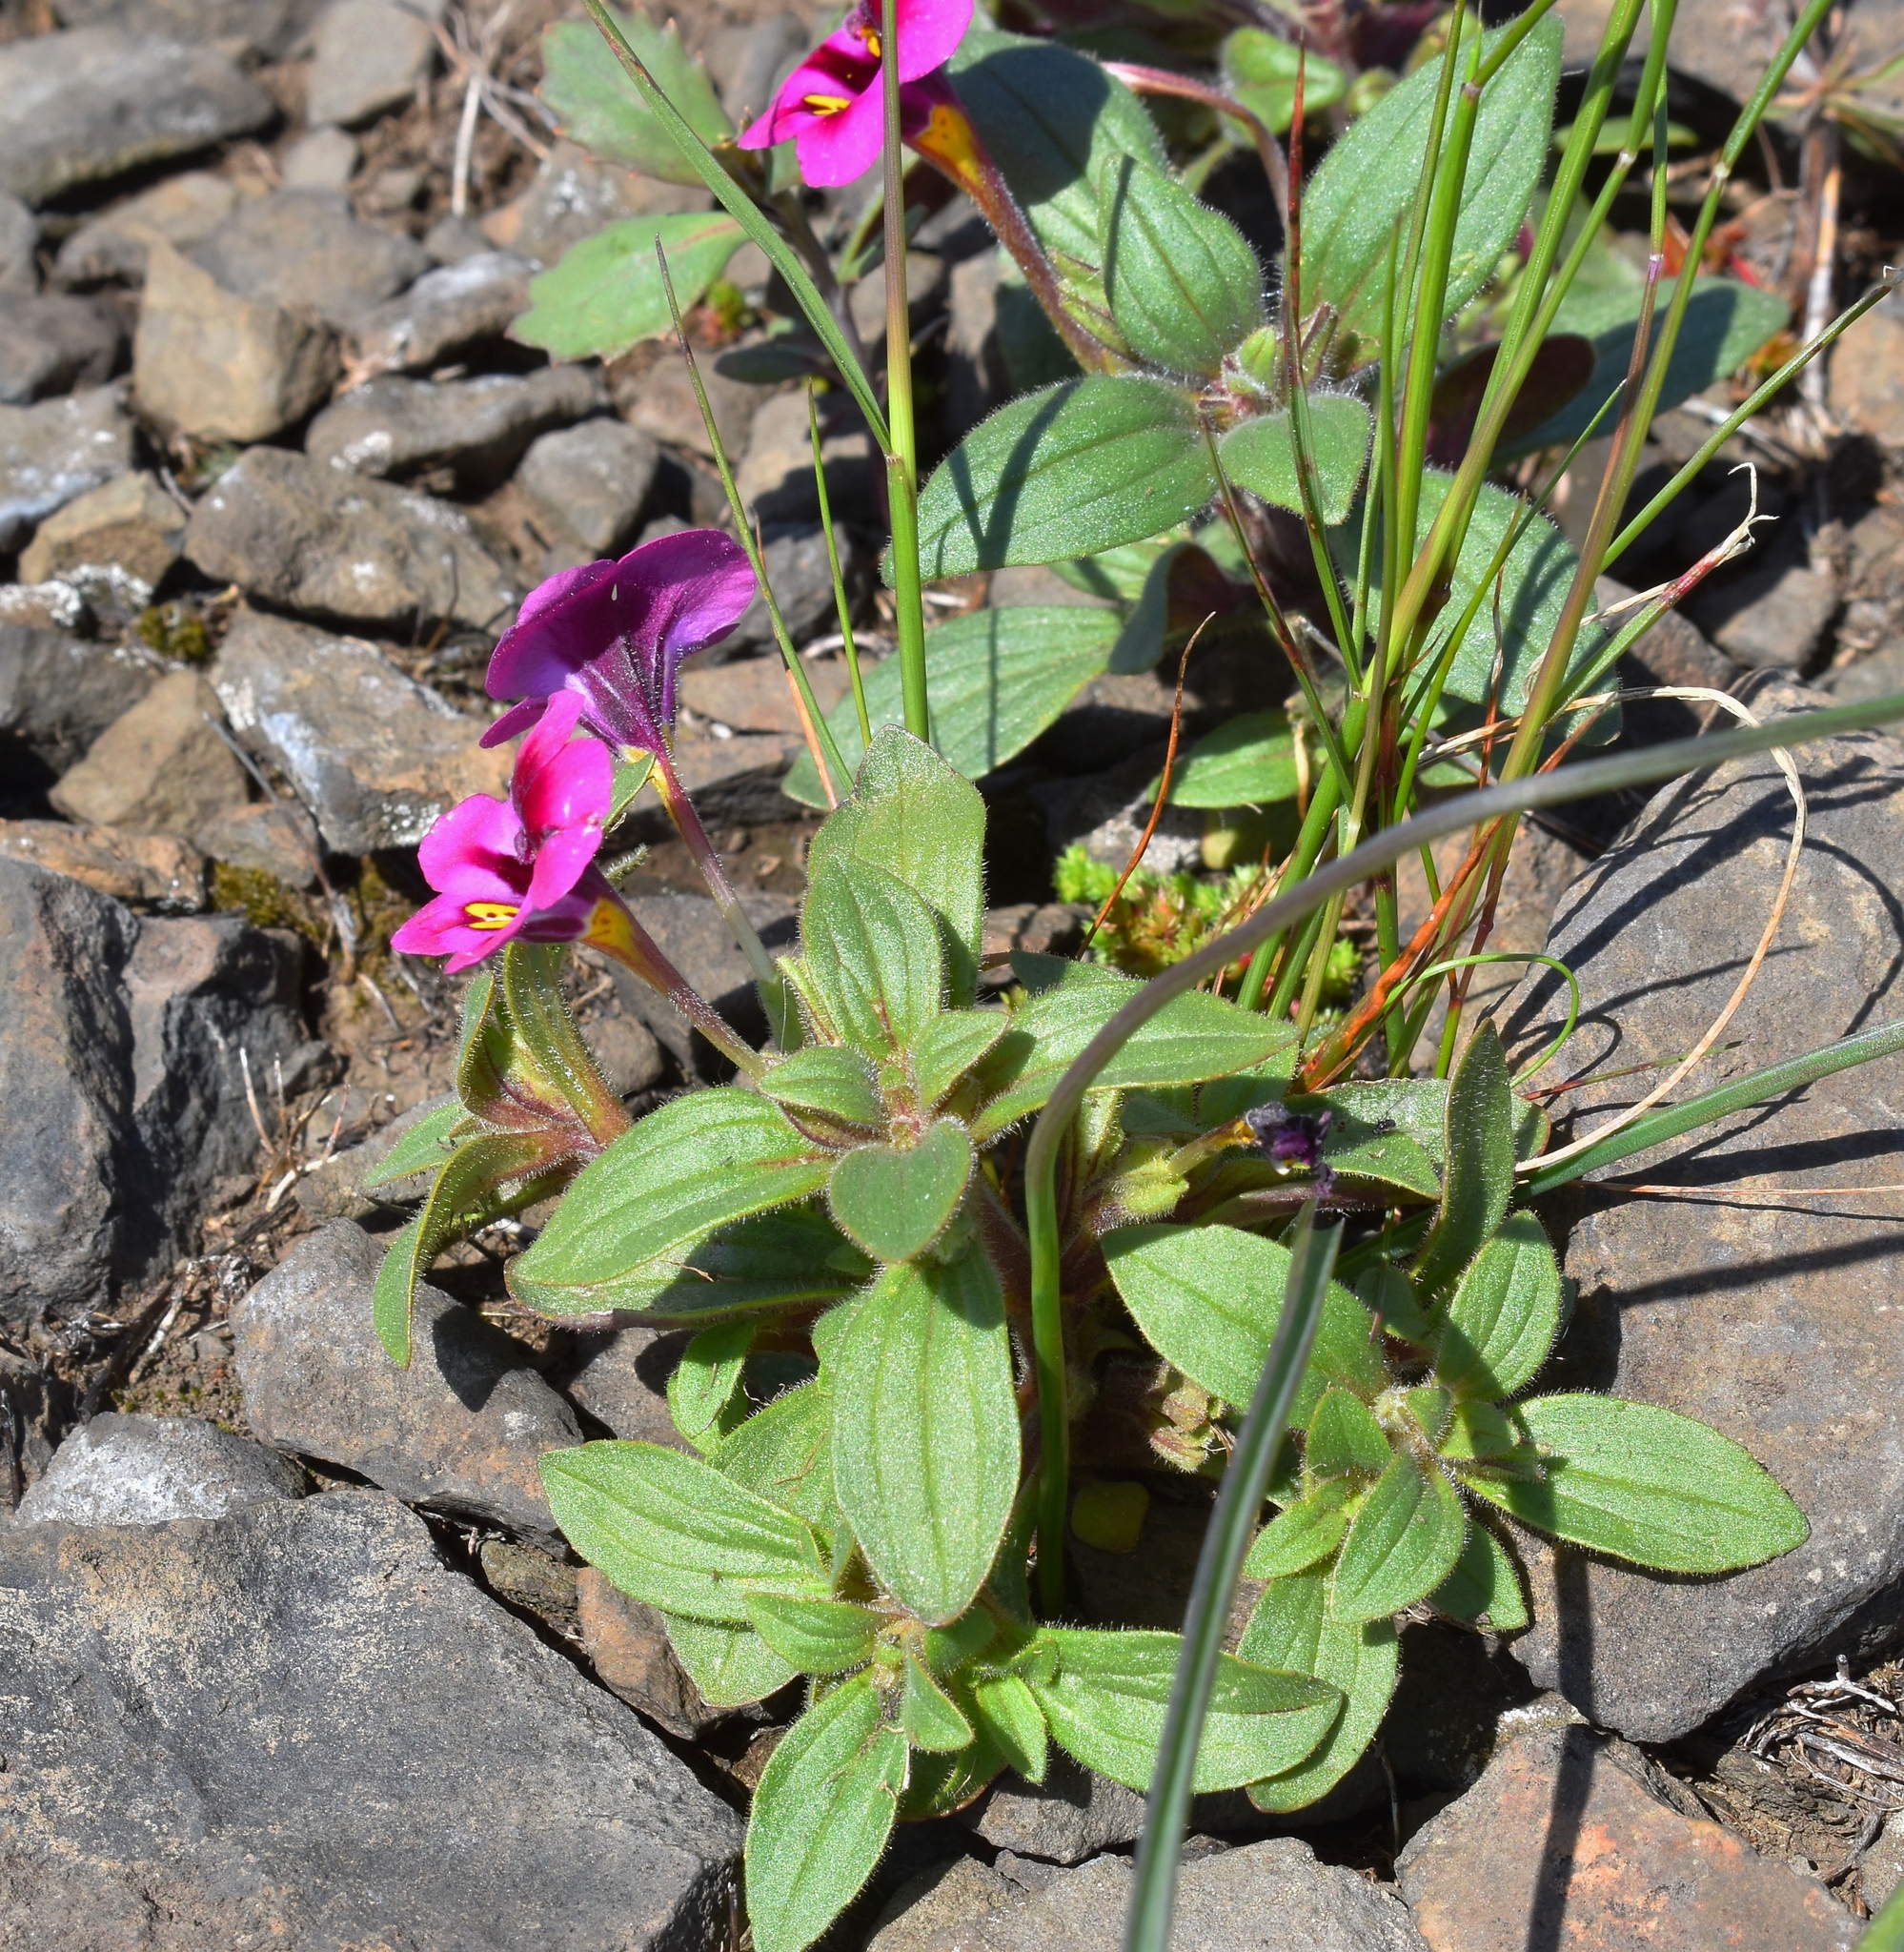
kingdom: Plantae
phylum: Tracheophyta
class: Magnoliopsida
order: Lamiales
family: Phrymaceae
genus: Diplacus
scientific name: Diplacus kelloggii
